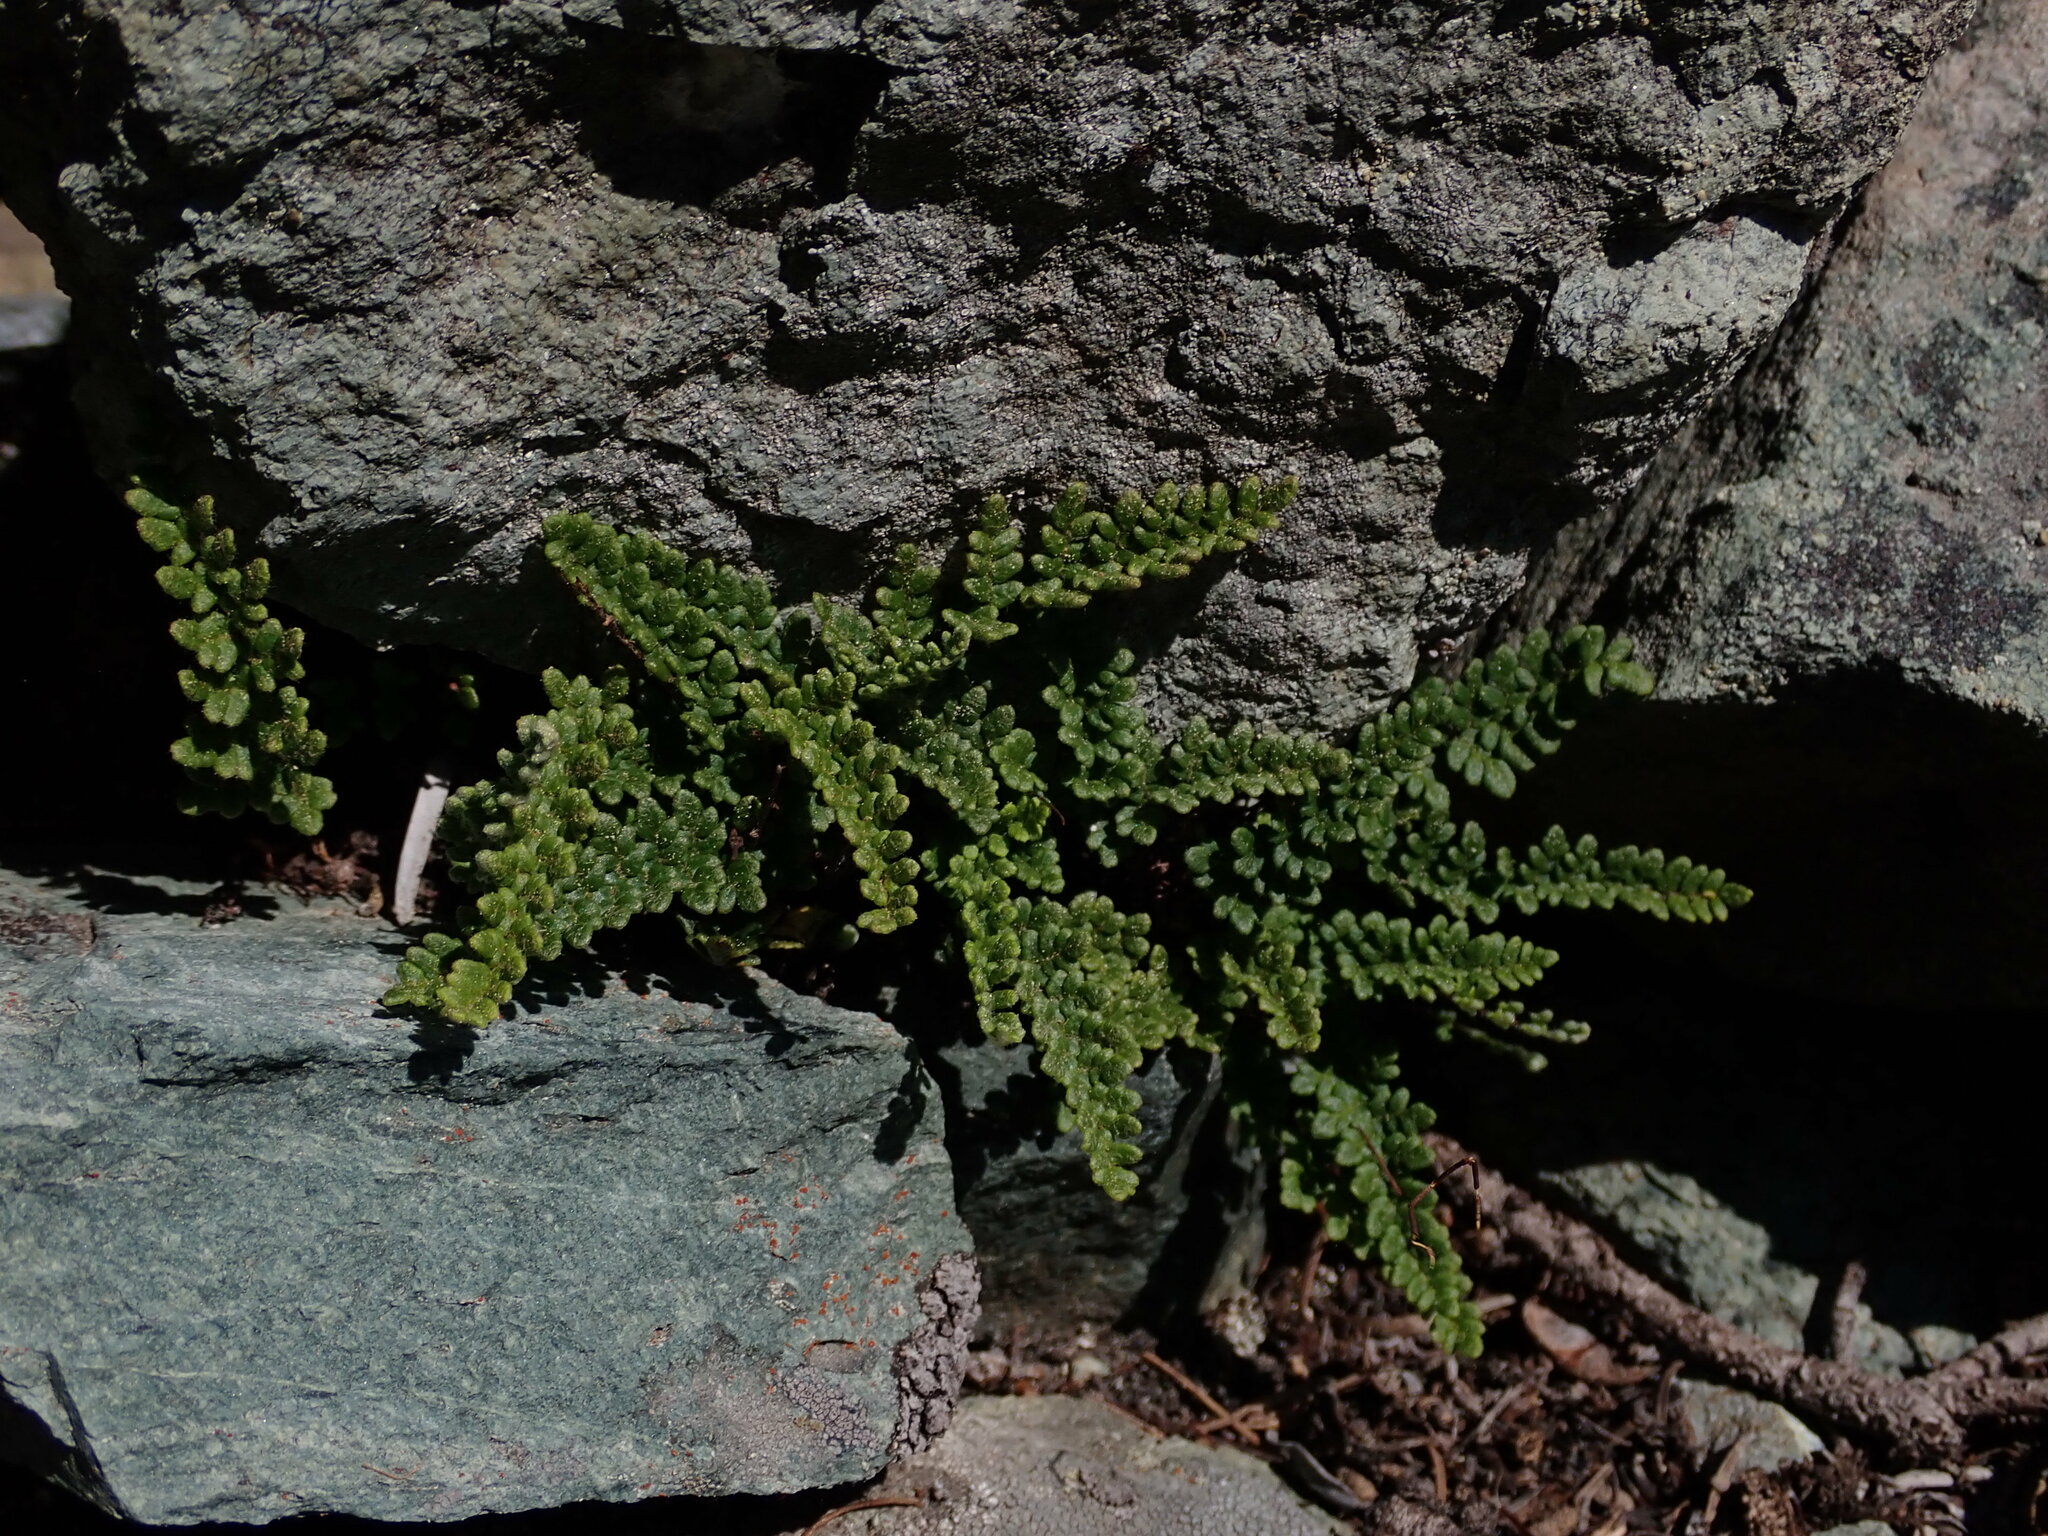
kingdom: Plantae
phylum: Tracheophyta
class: Polypodiopsida
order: Polypodiales
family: Pteridaceae
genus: Myriopteris
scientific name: Myriopteris gracillima
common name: Lace fern
